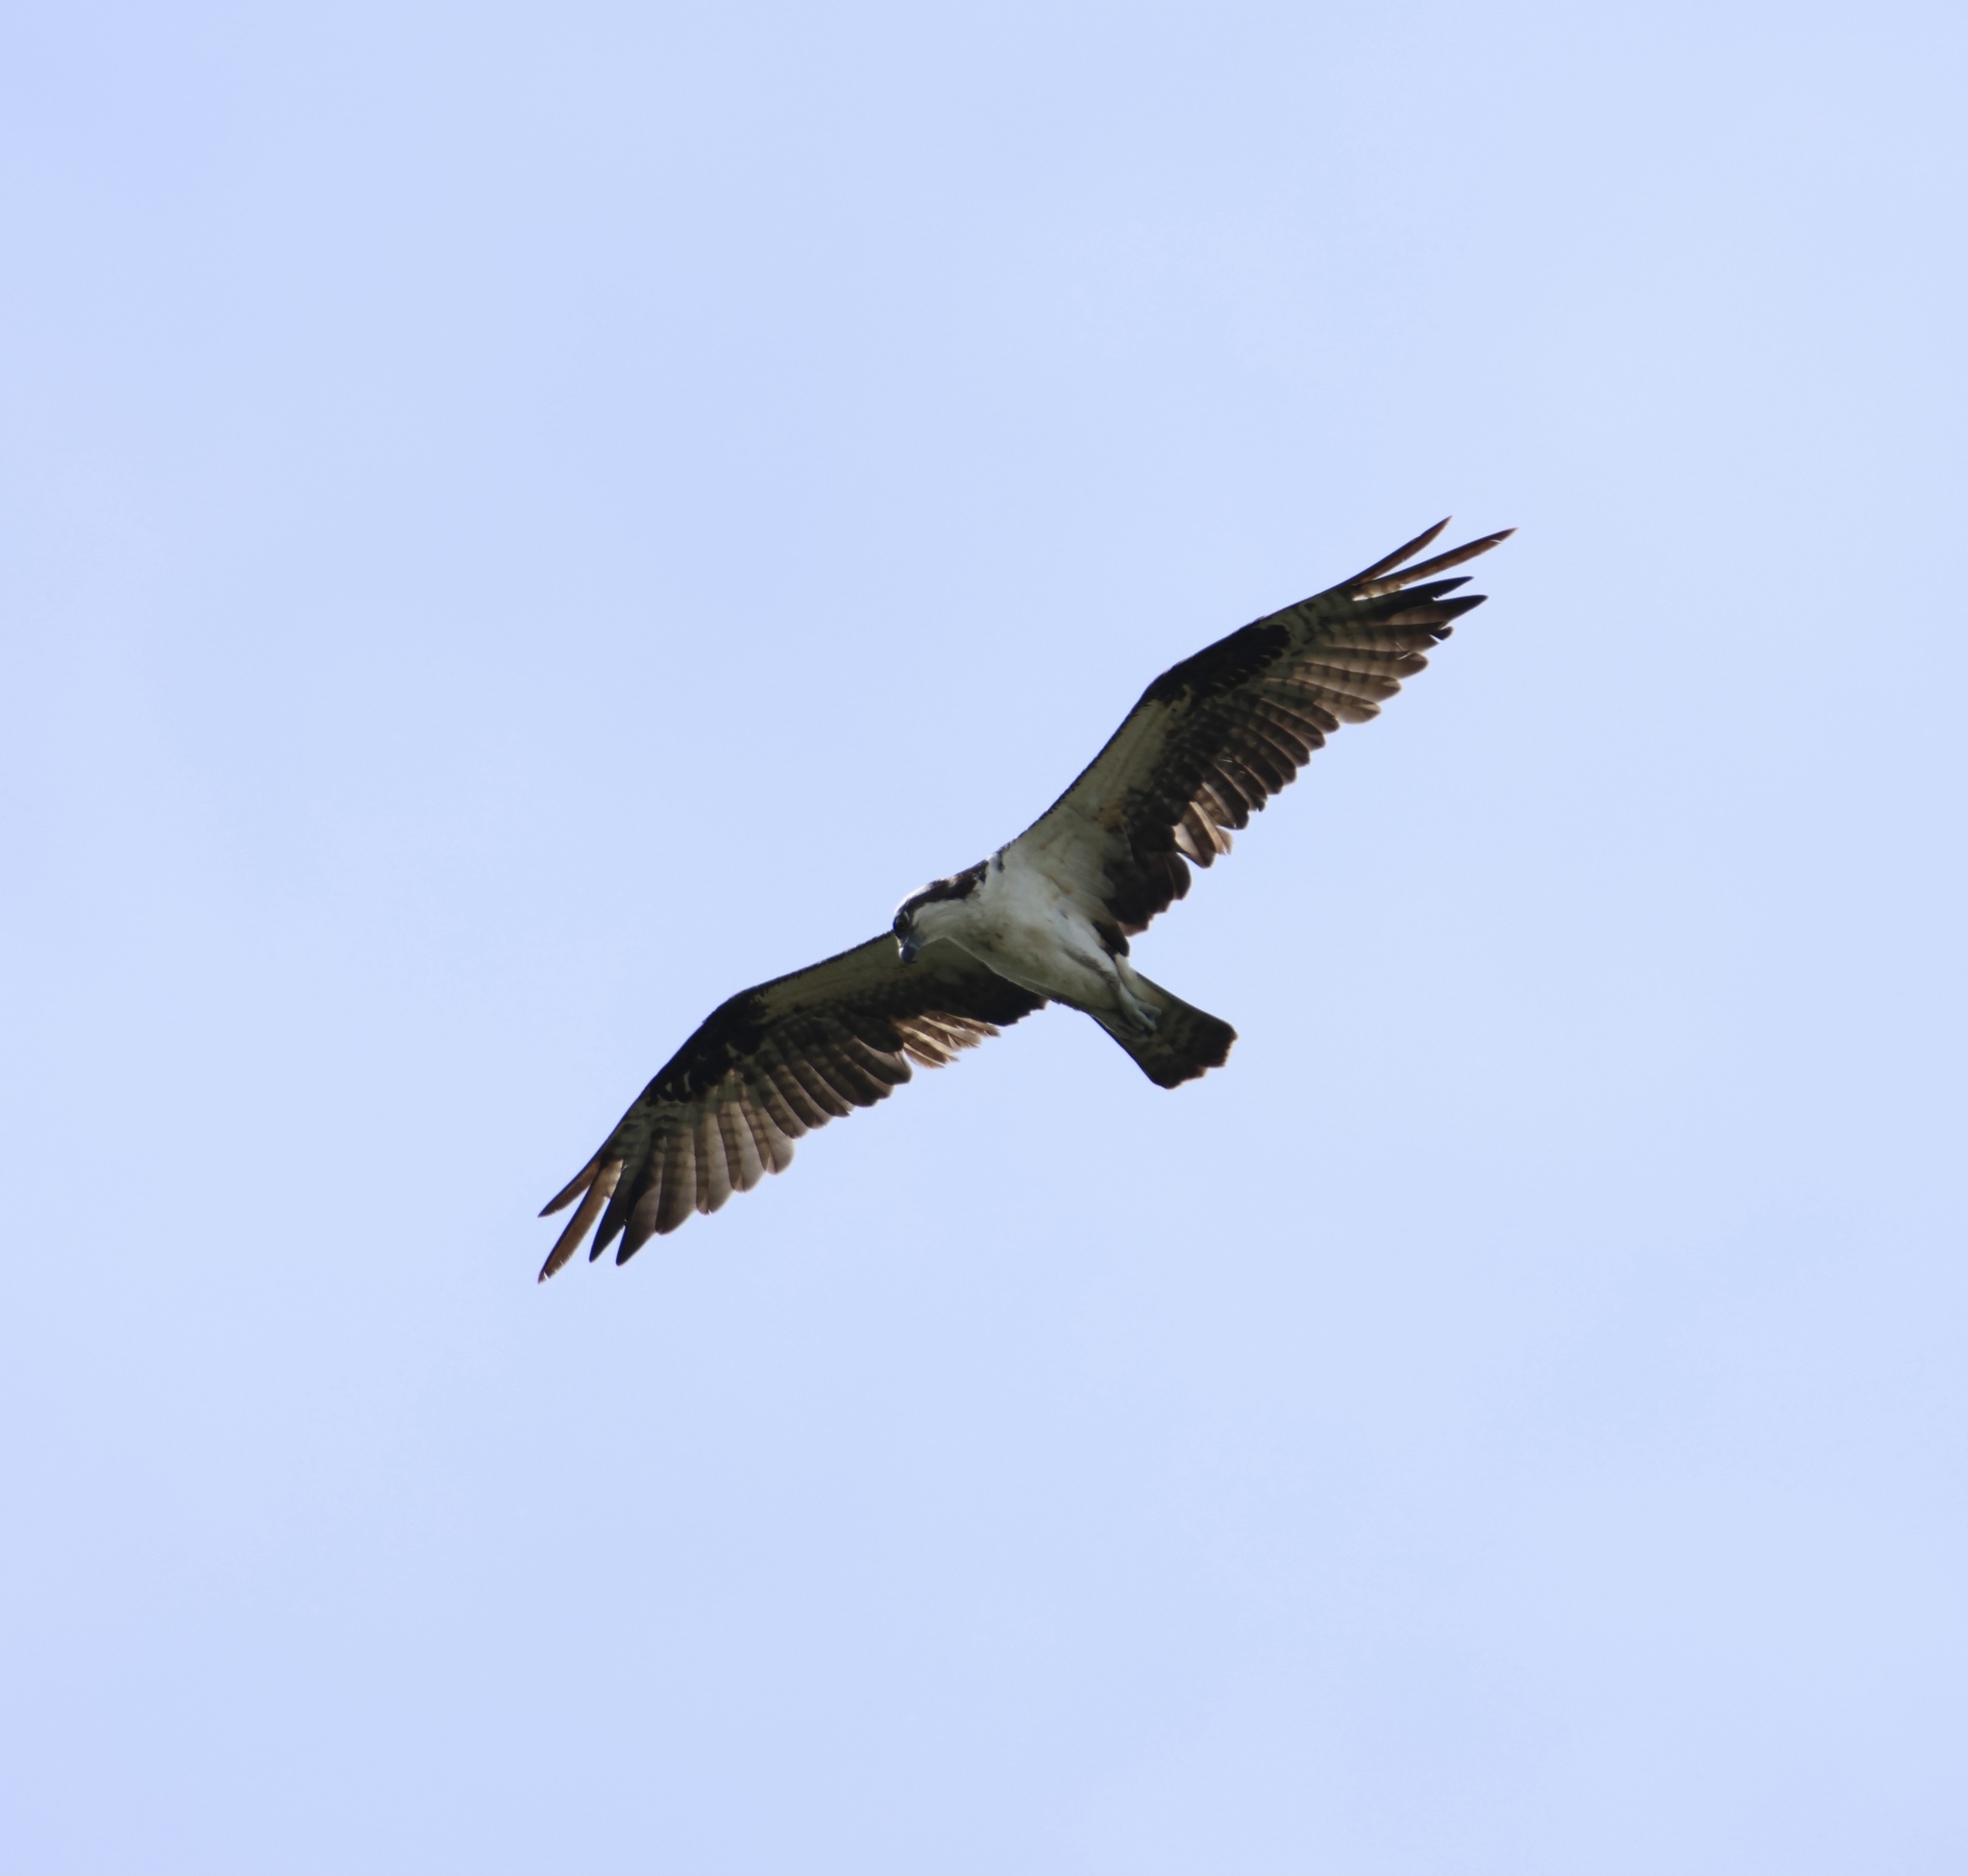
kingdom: Animalia
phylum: Chordata
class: Aves
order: Accipitriformes
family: Pandionidae
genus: Pandion
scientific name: Pandion haliaetus
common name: Osprey
